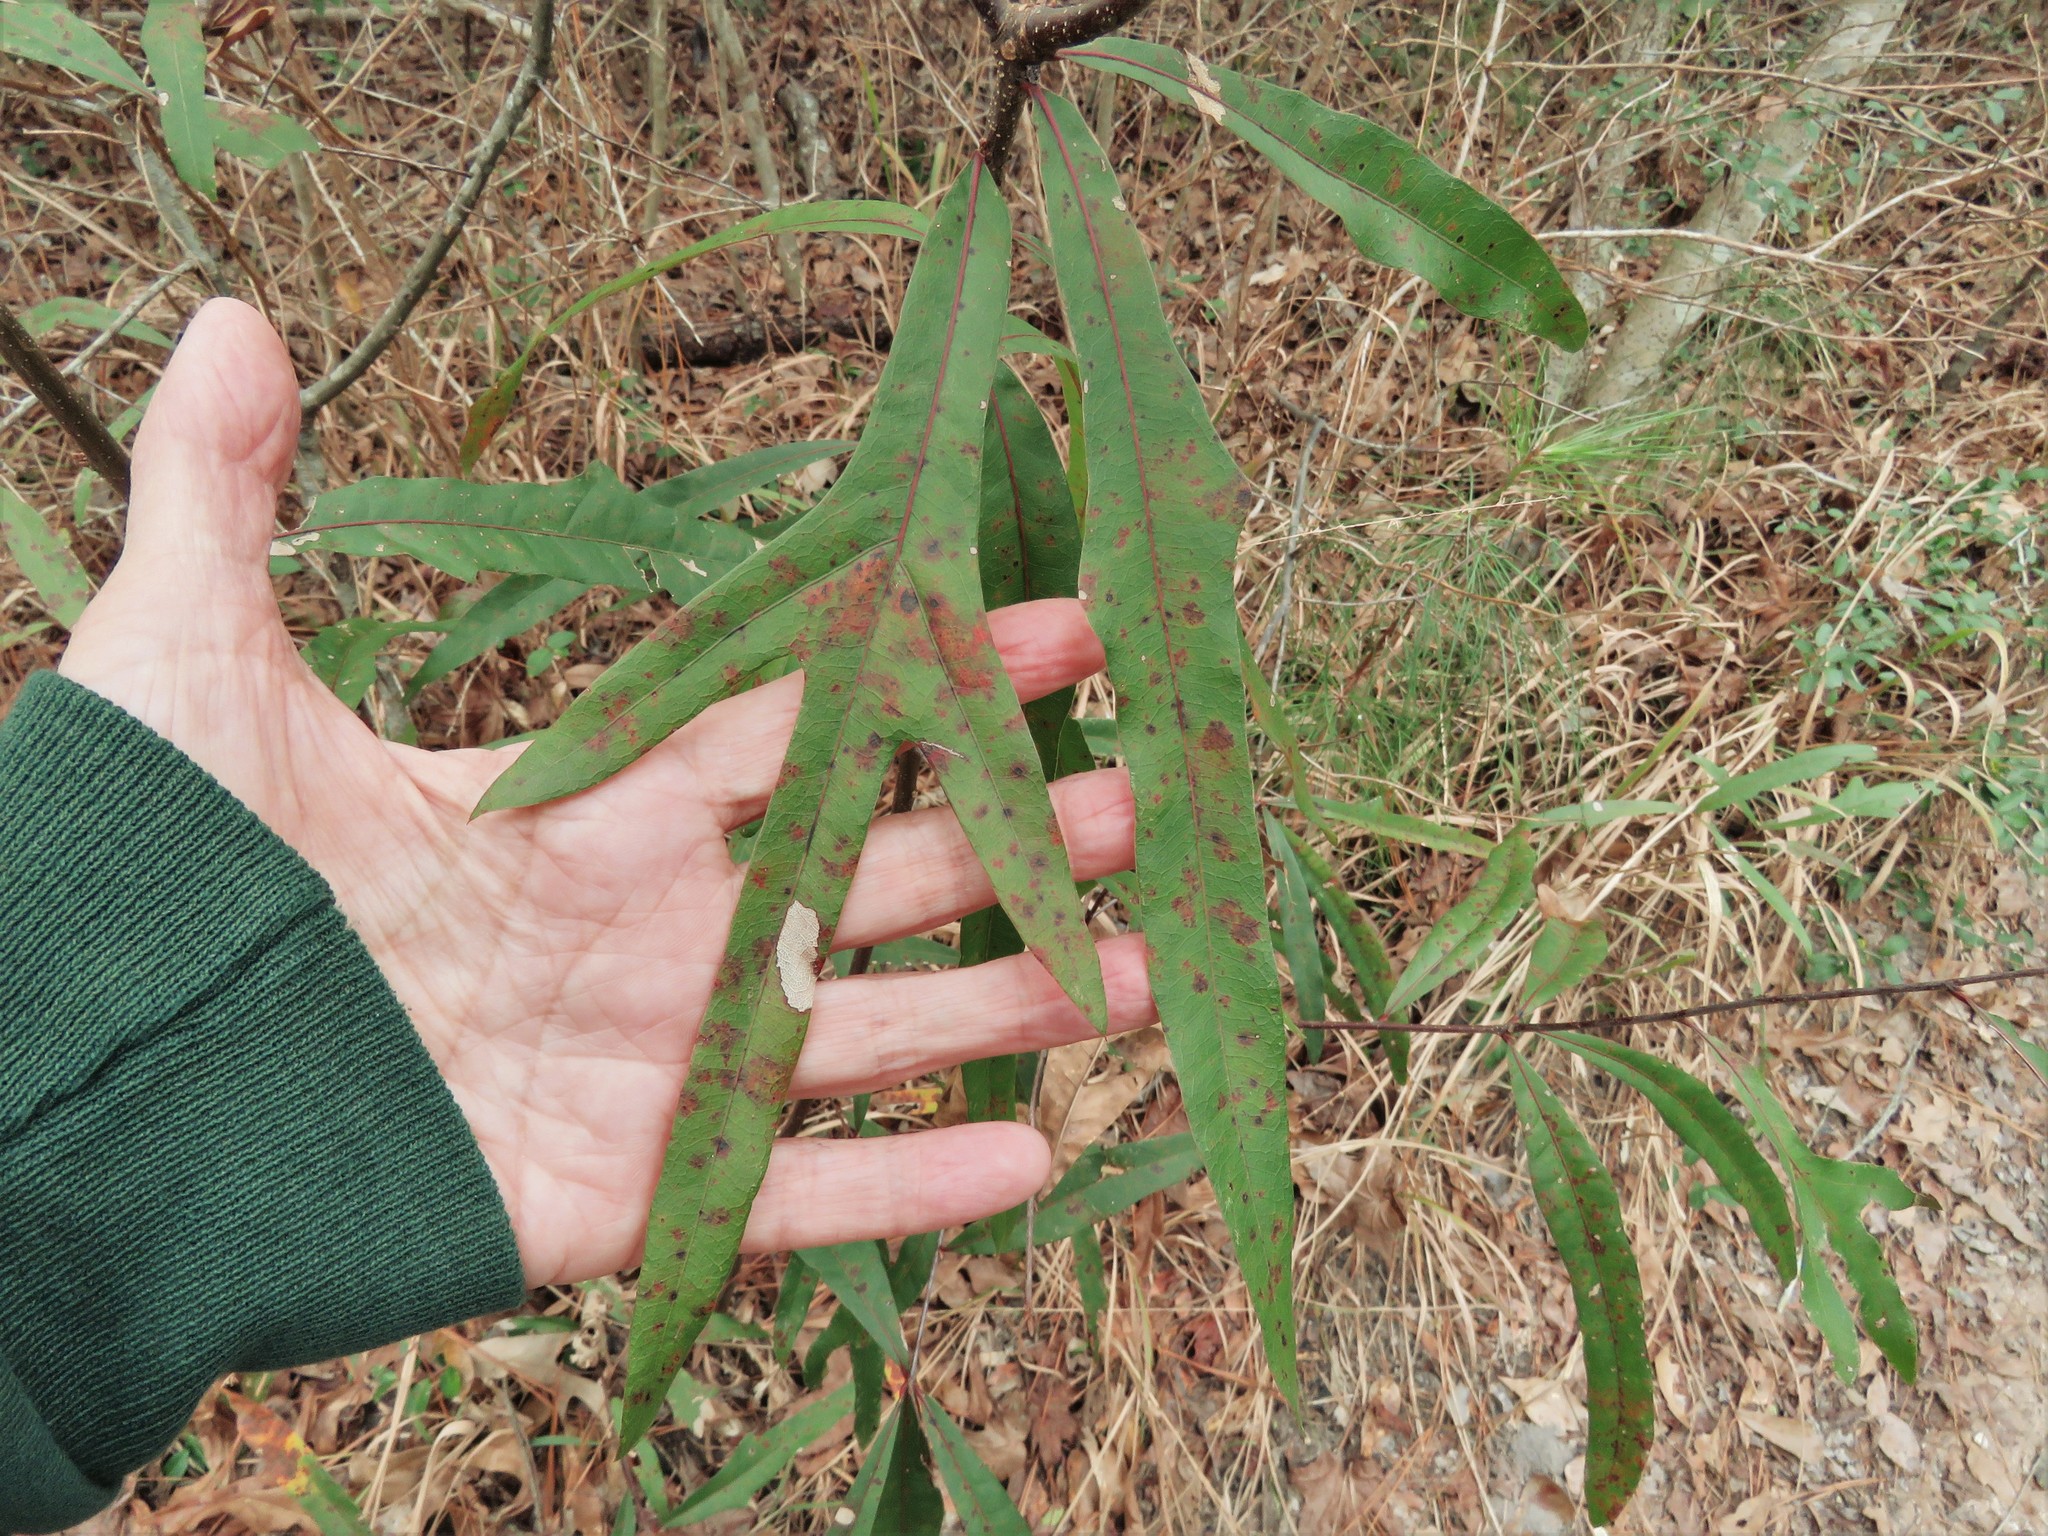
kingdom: Plantae
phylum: Tracheophyta
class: Magnoliopsida
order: Fagales
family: Fagaceae
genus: Quercus
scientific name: Quercus phellos
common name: Willow oak
